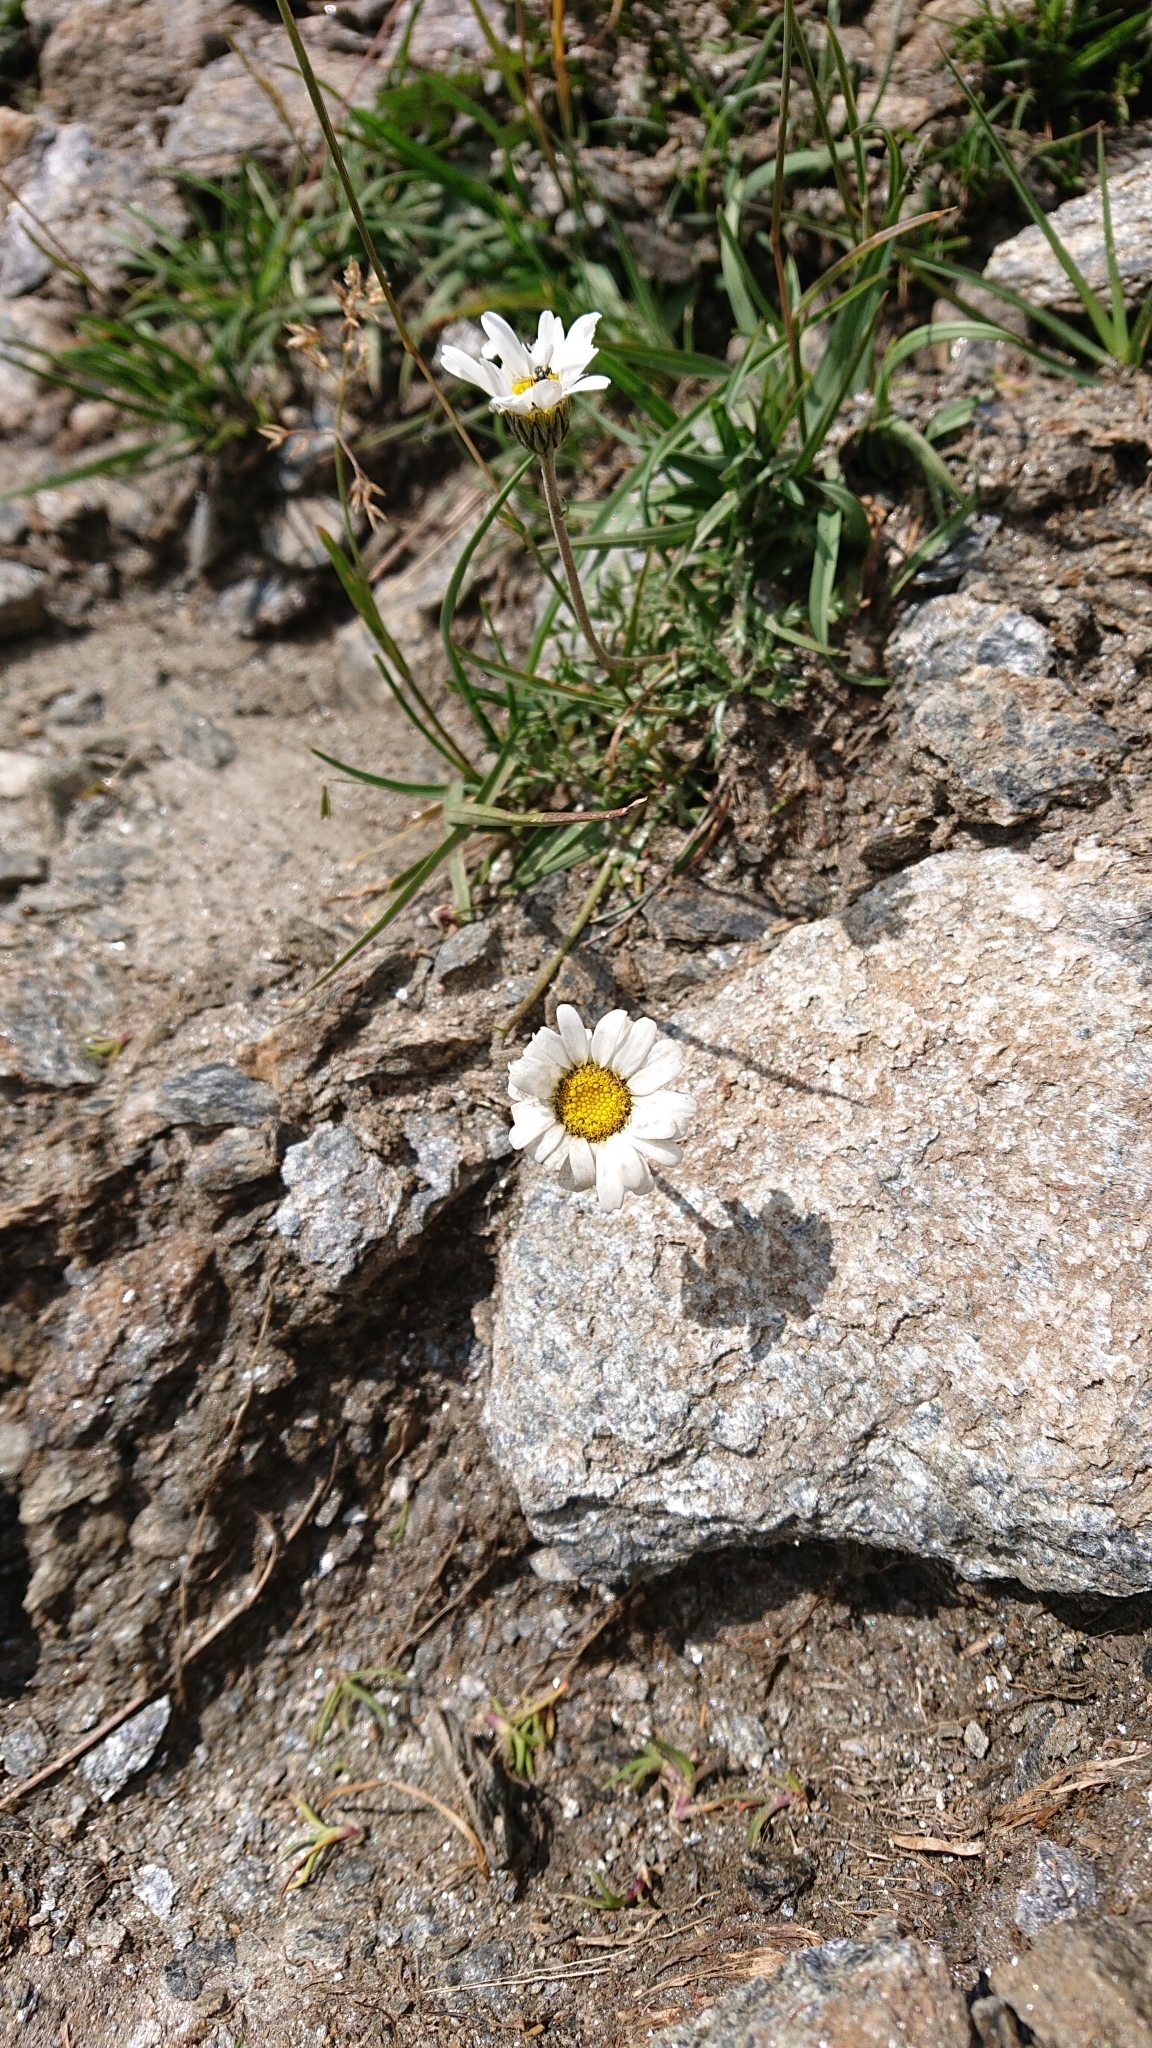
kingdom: Plantae
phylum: Tracheophyta
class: Magnoliopsida
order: Asterales
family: Asteraceae
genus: Leucanthemopsis
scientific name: Leucanthemopsis alpina
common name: Alpine moon daisy
